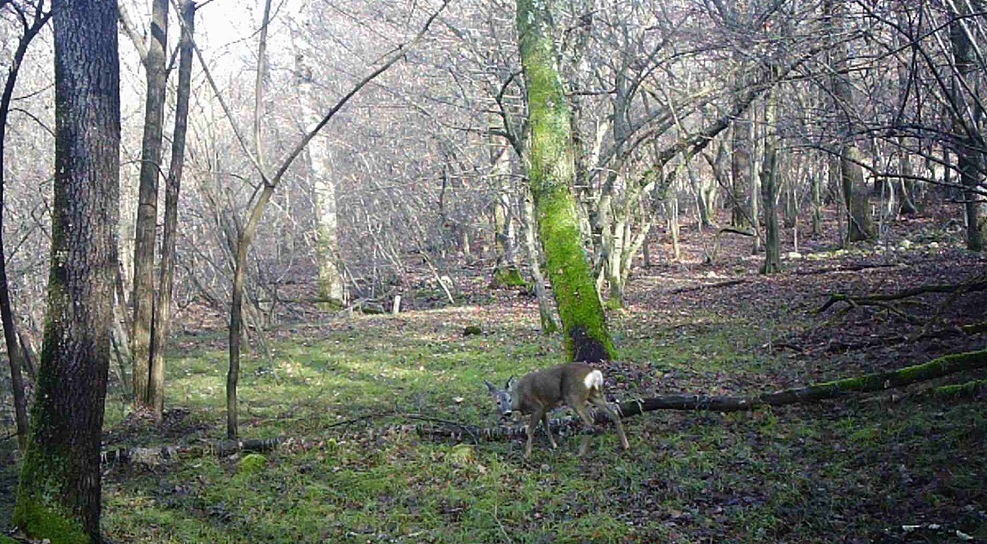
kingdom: Animalia
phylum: Chordata
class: Mammalia
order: Artiodactyla
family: Cervidae
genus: Capreolus
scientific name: Capreolus capreolus
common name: Western roe deer
